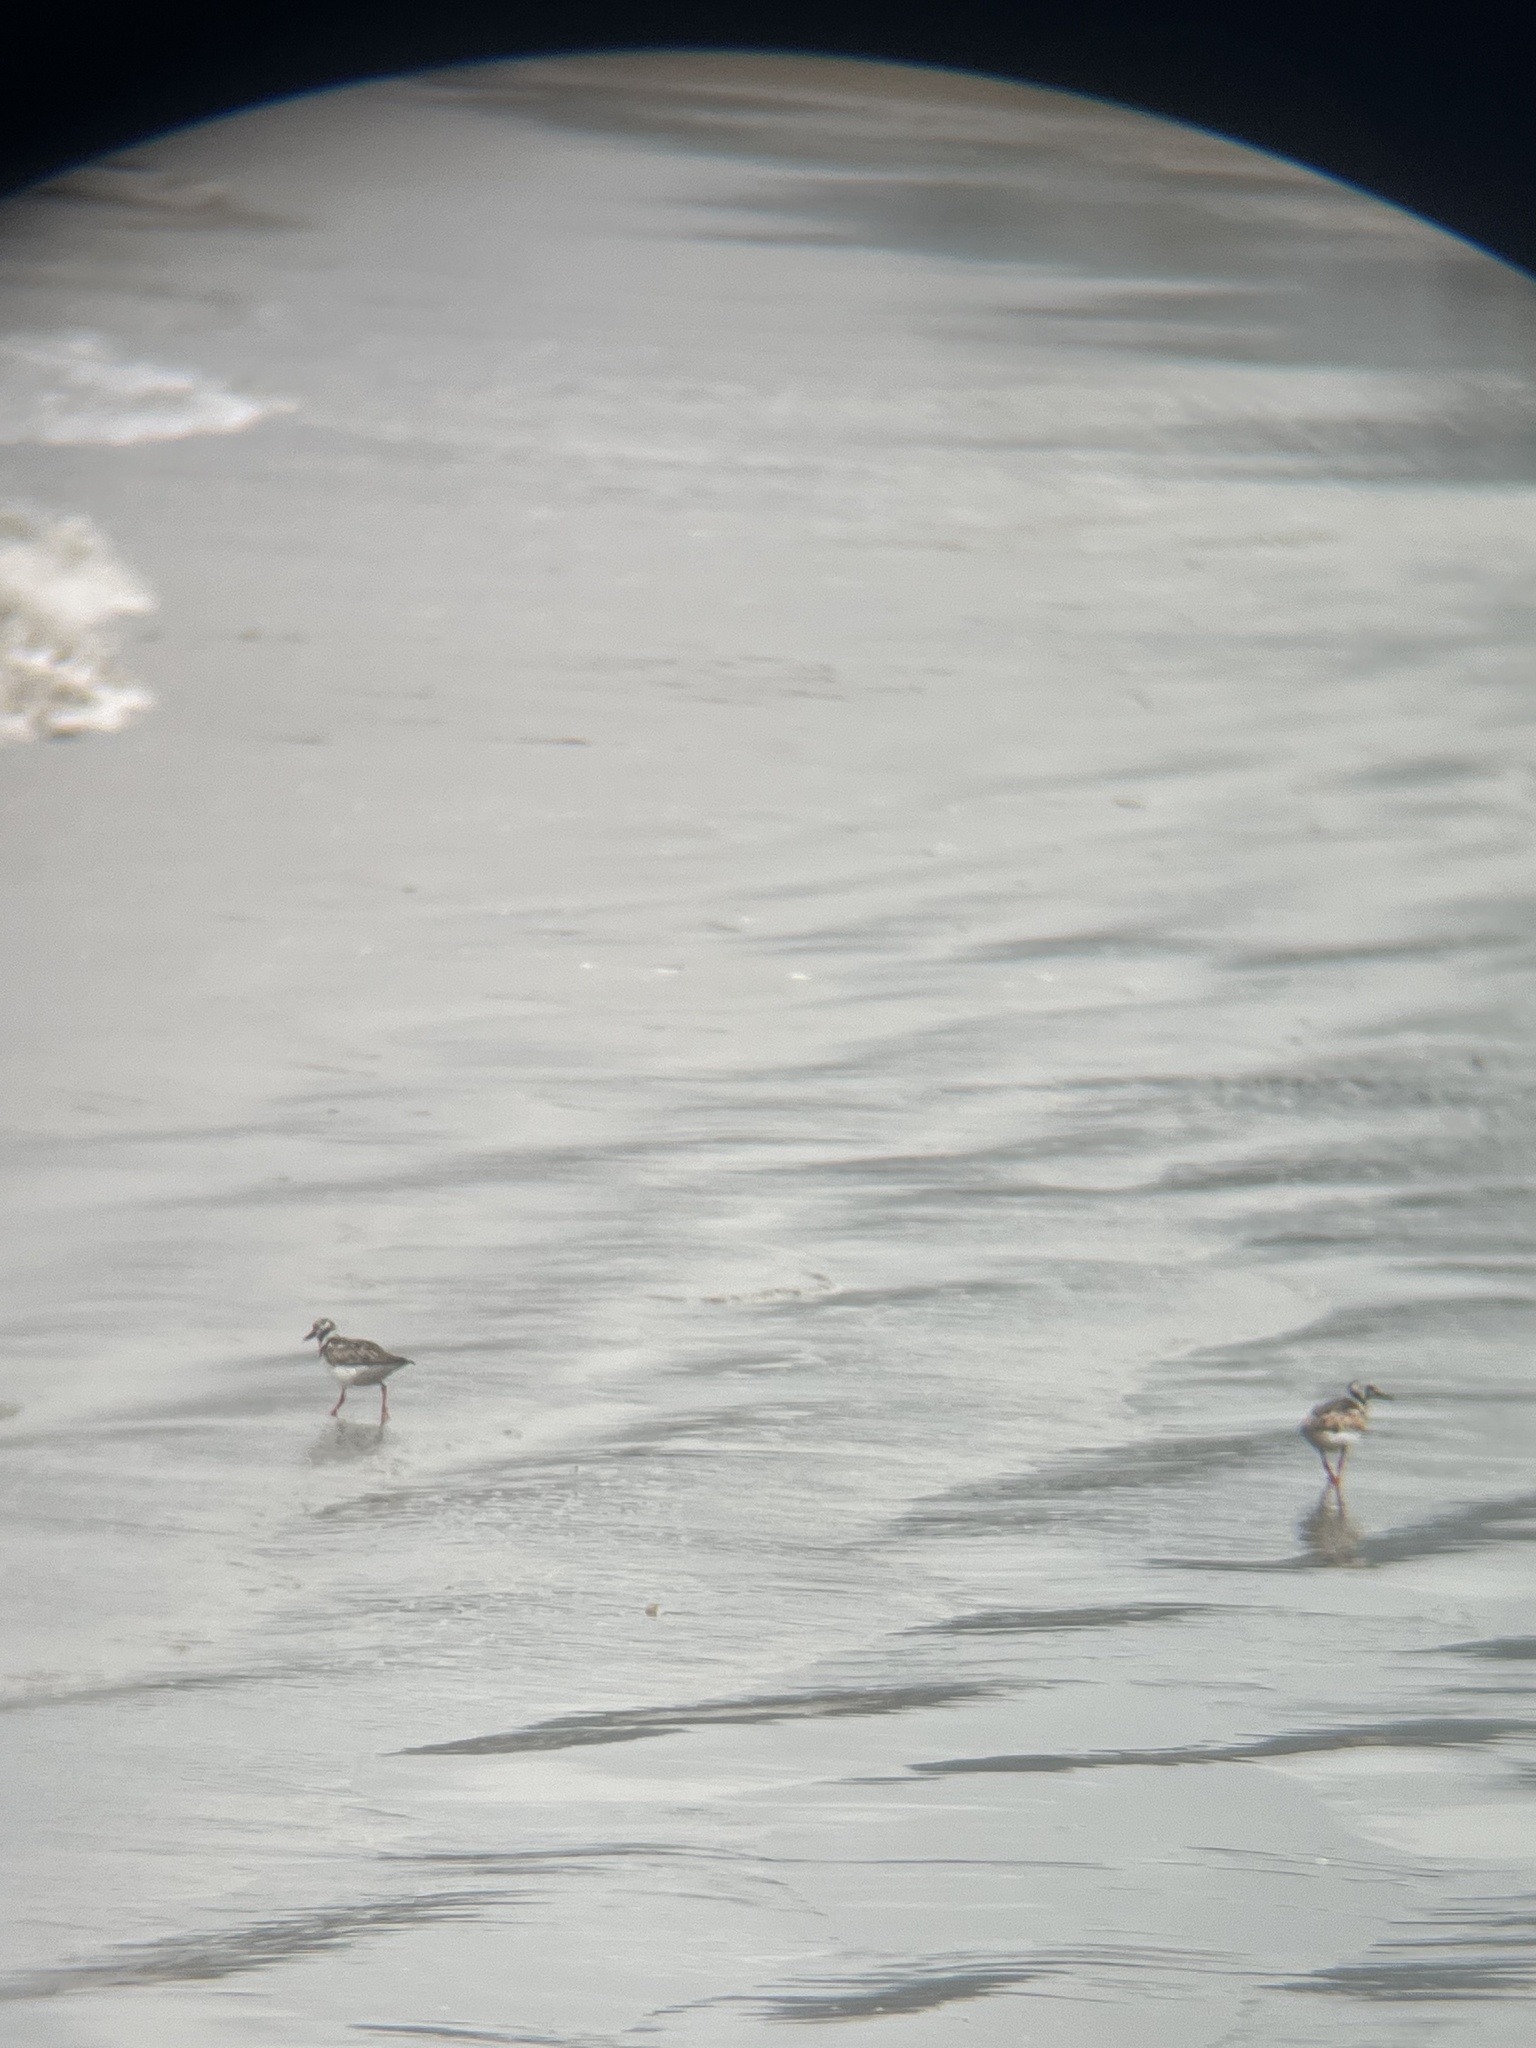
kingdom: Animalia
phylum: Chordata
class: Aves
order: Charadriiformes
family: Scolopacidae
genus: Arenaria
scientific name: Arenaria interpres
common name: Ruddy turnstone
